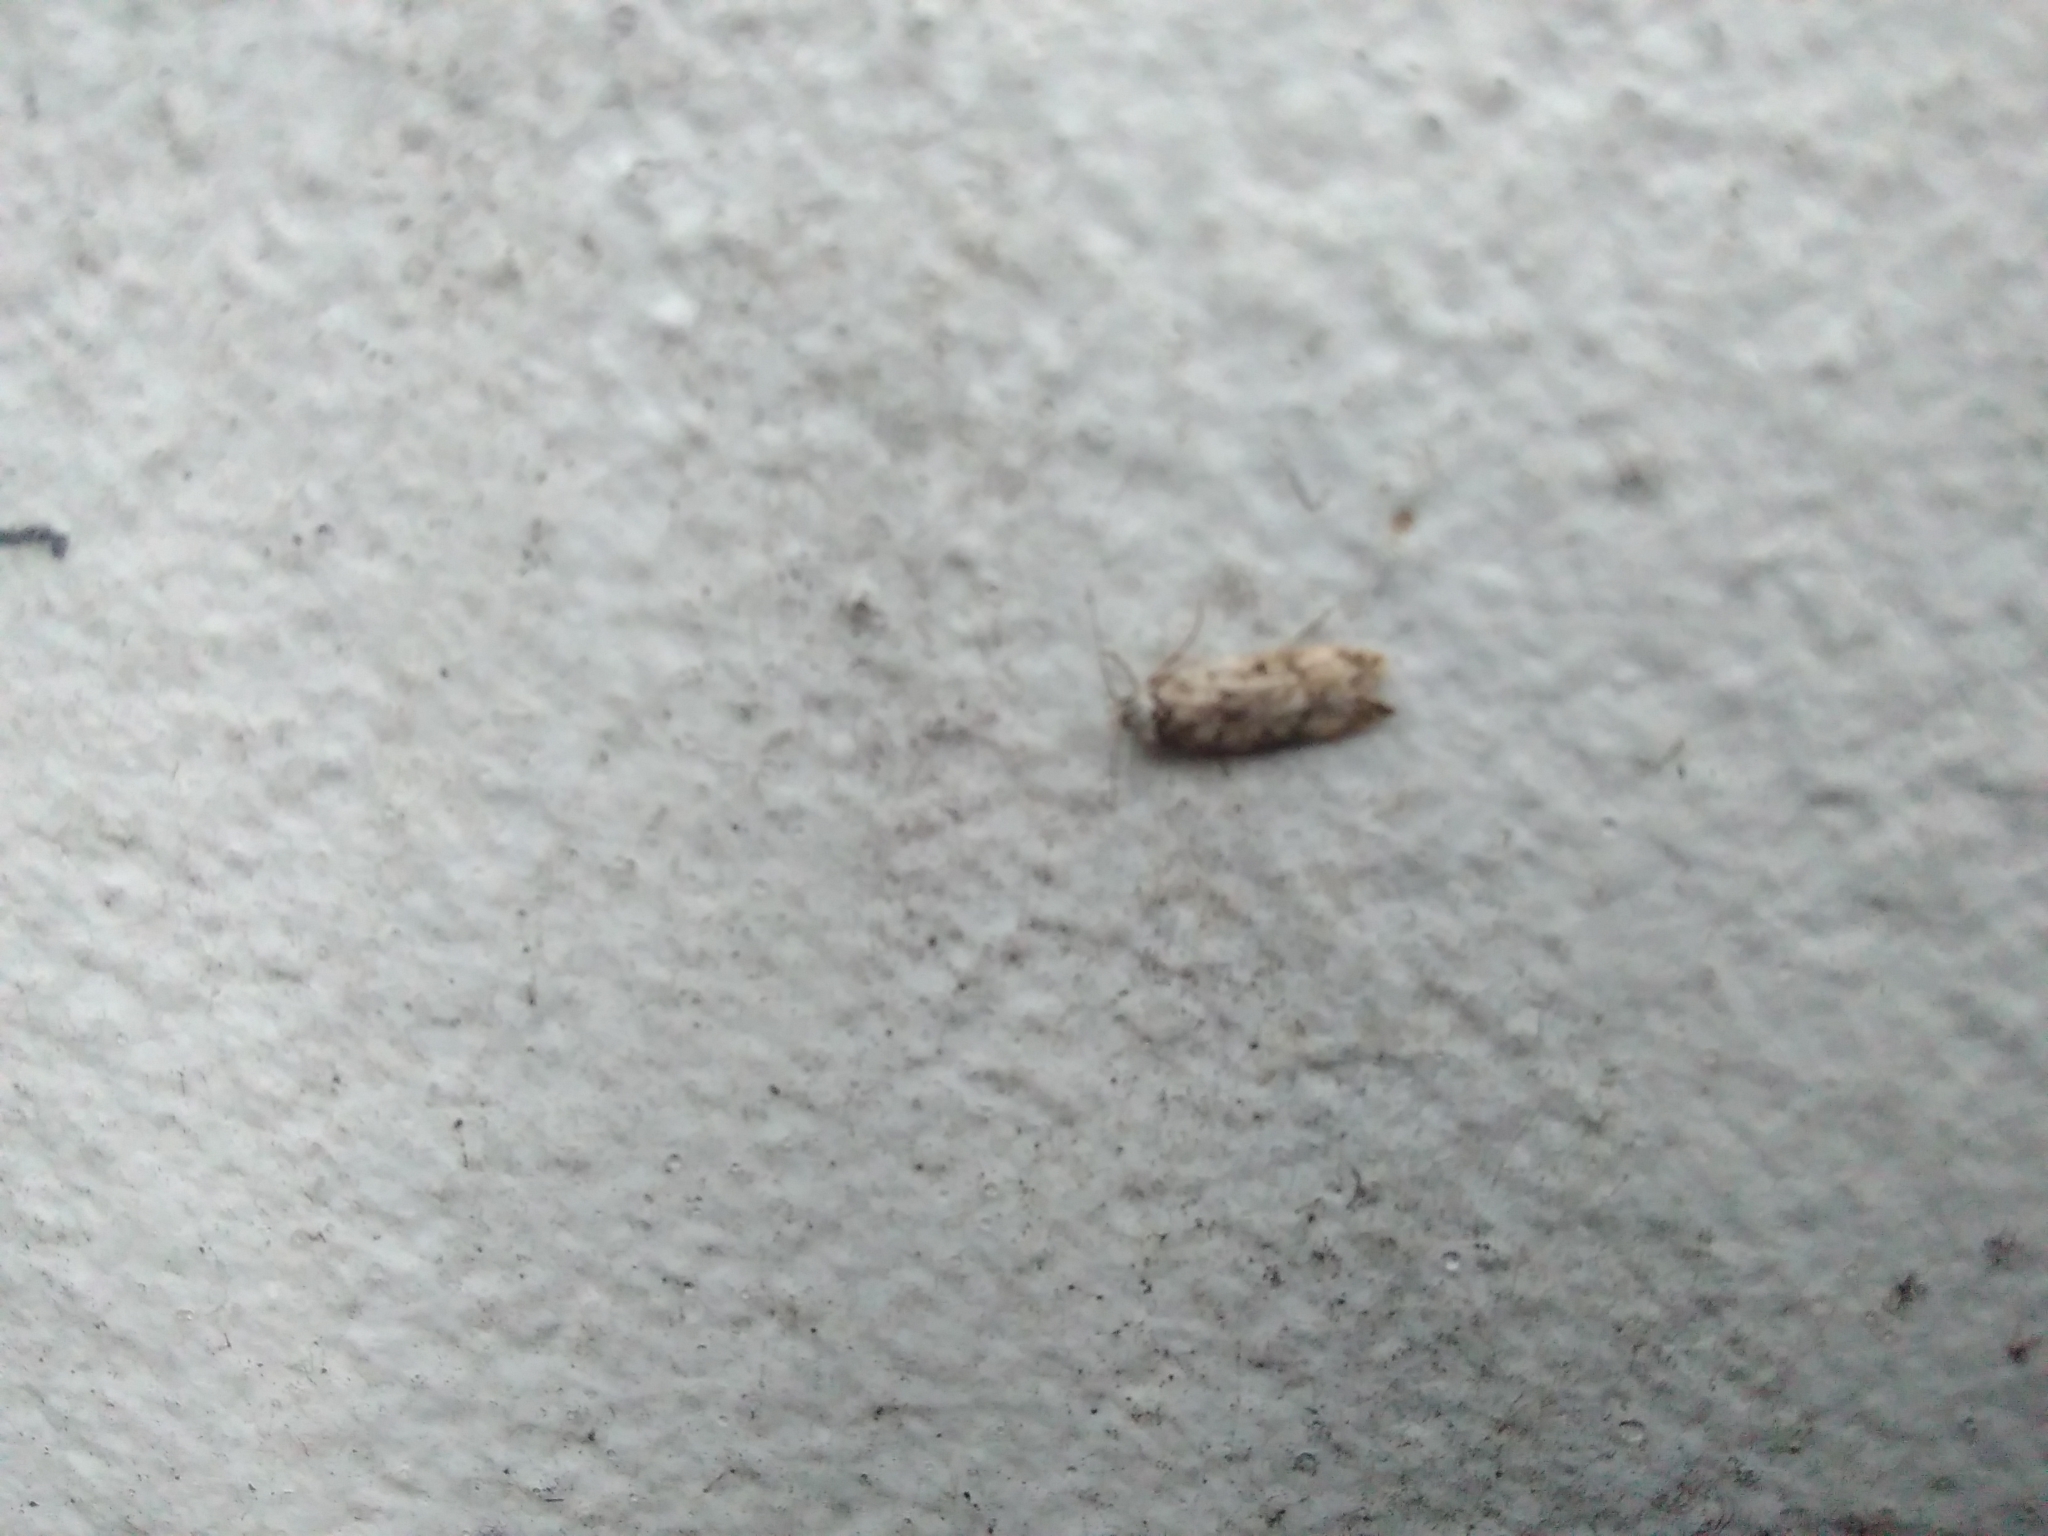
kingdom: Animalia
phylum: Arthropoda
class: Insecta
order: Lepidoptera
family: Oecophoridae
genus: Endrosis
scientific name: Endrosis sarcitrella
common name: White-shouldered house moth
